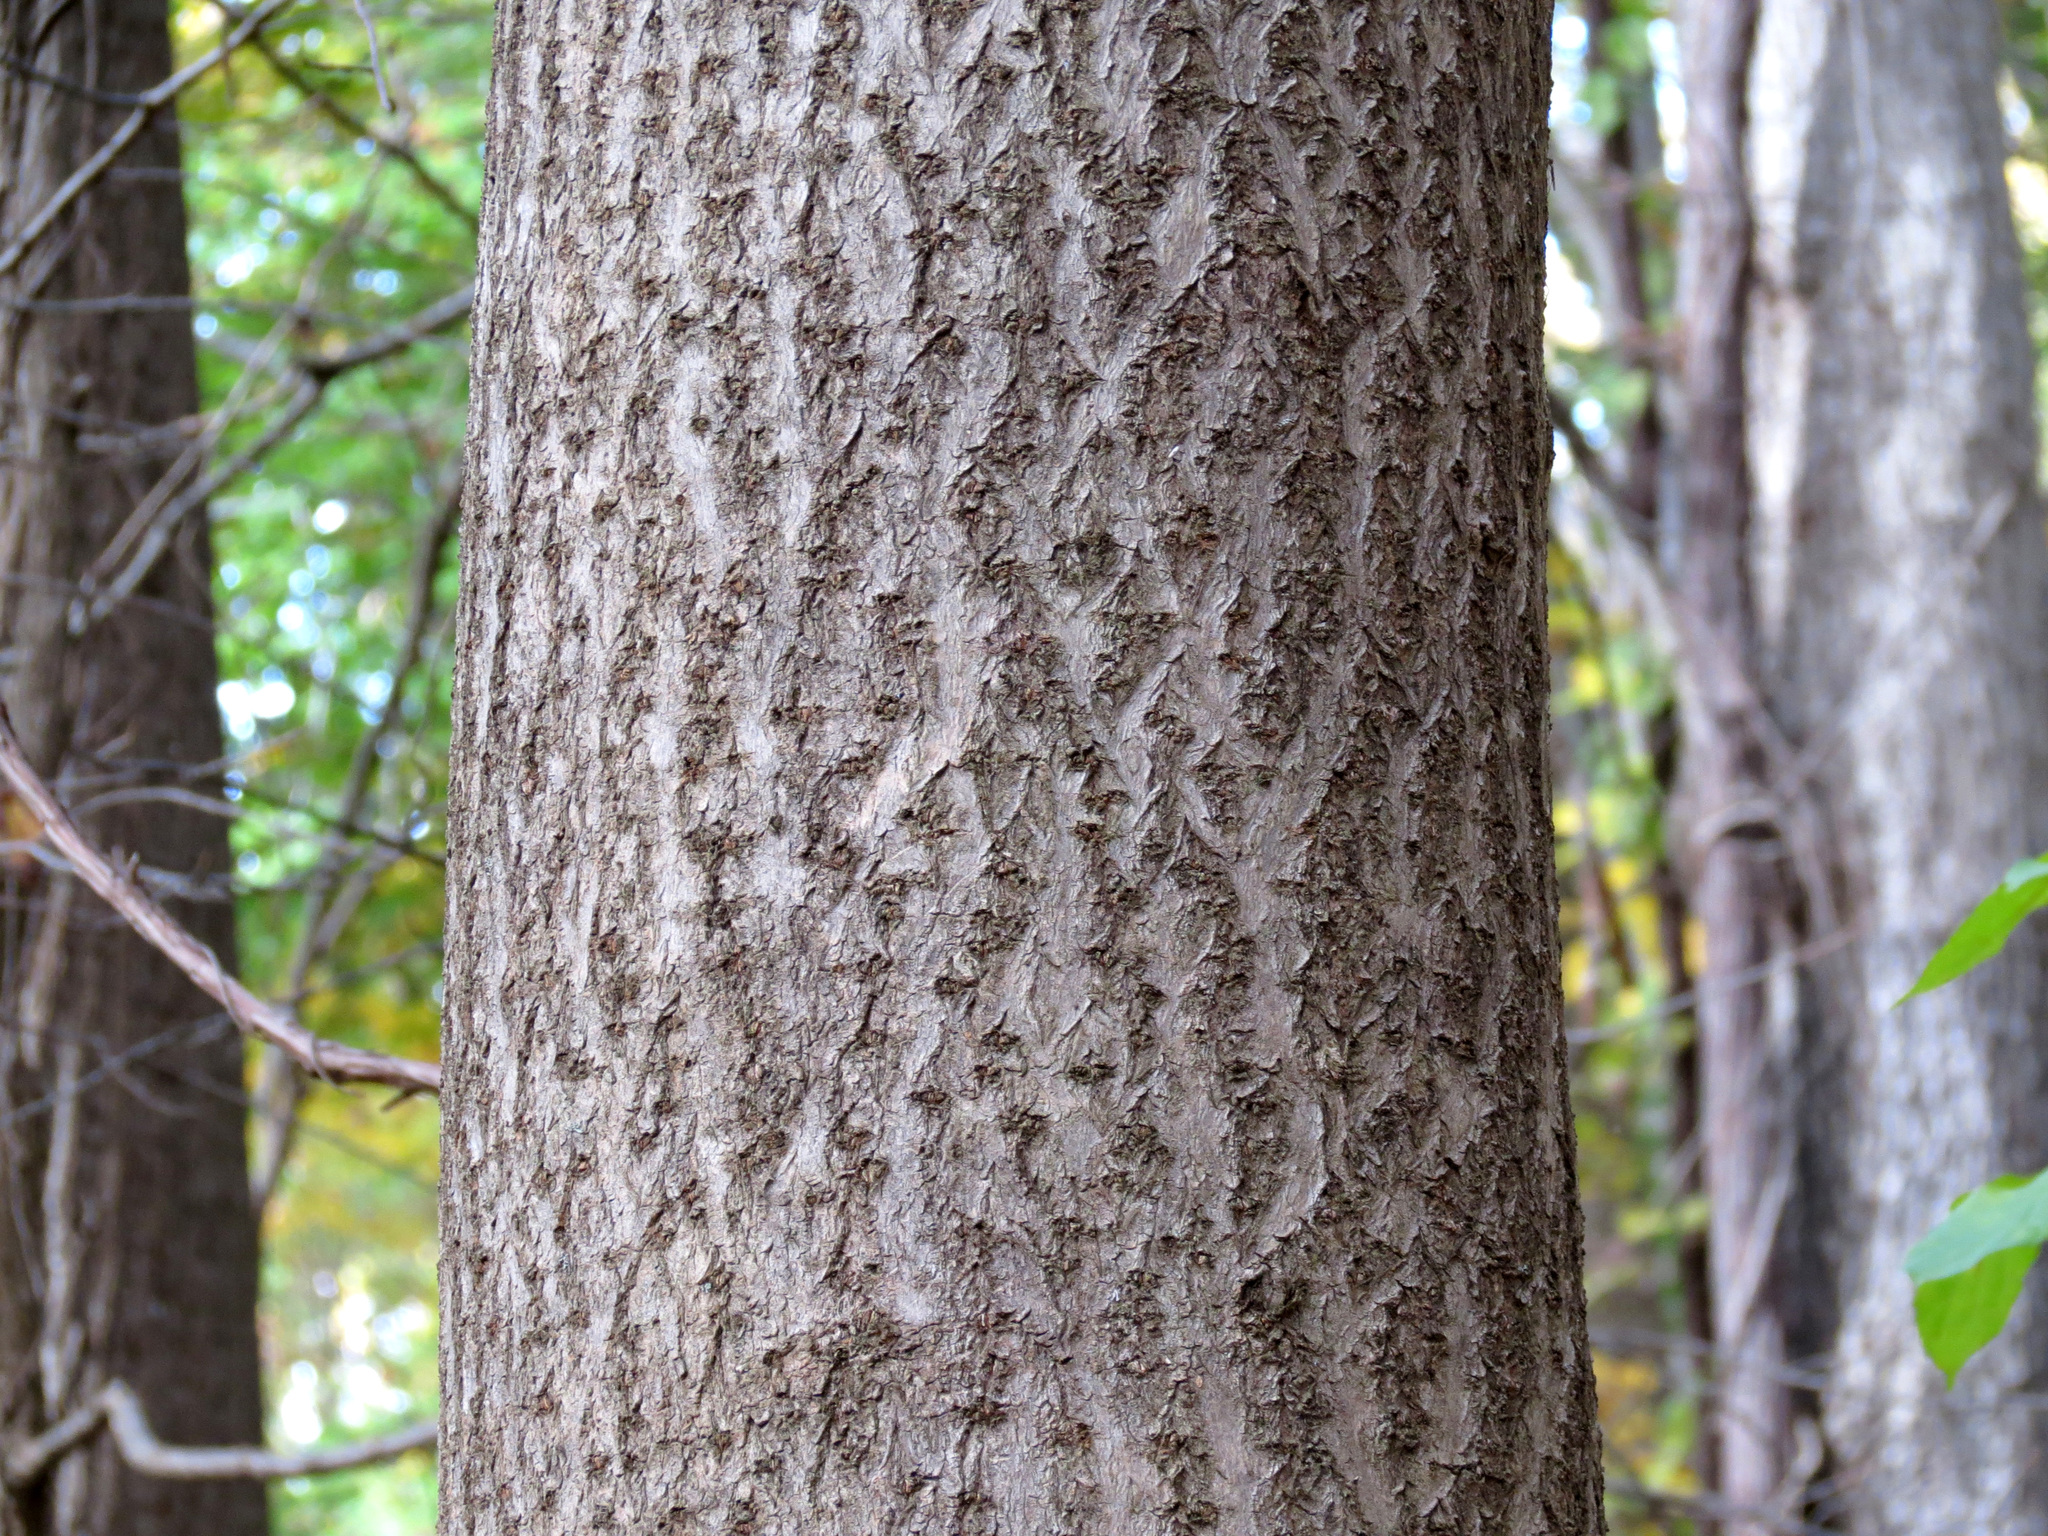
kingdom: Plantae
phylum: Tracheophyta
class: Magnoliopsida
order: Fabales
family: Fabaceae
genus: Cercis
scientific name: Cercis canadensis
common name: Eastern redbud
